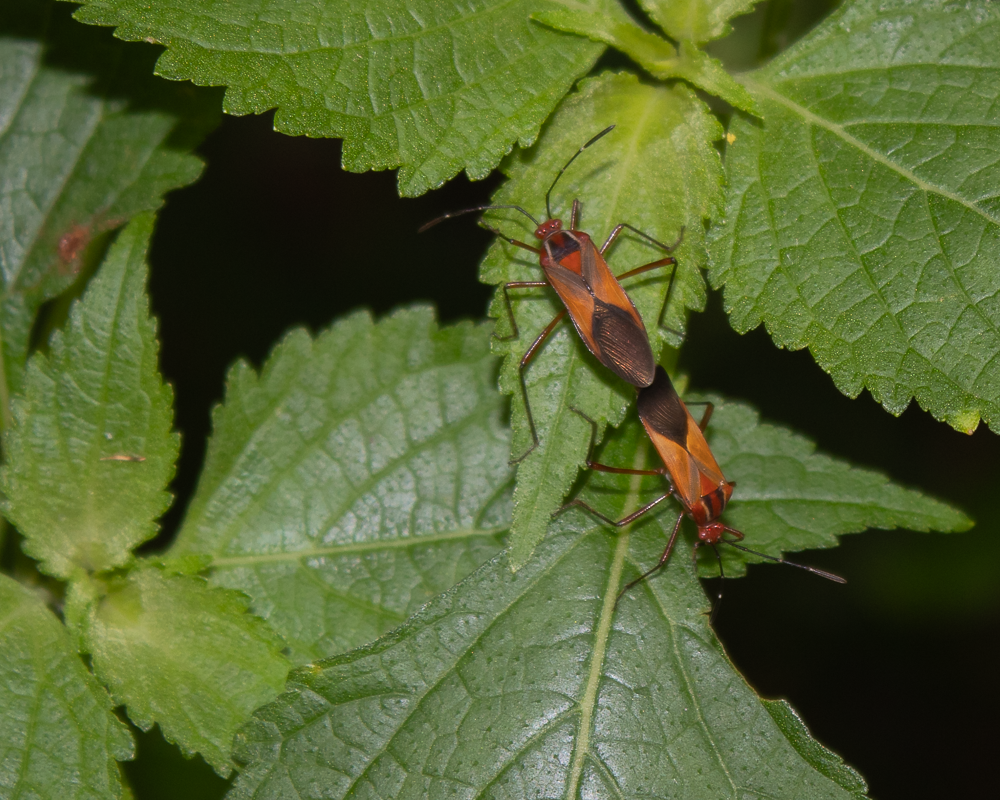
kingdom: Animalia
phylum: Arthropoda
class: Insecta
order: Hemiptera
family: Coreidae
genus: Hypselonotus
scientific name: Hypselonotus interruptus
